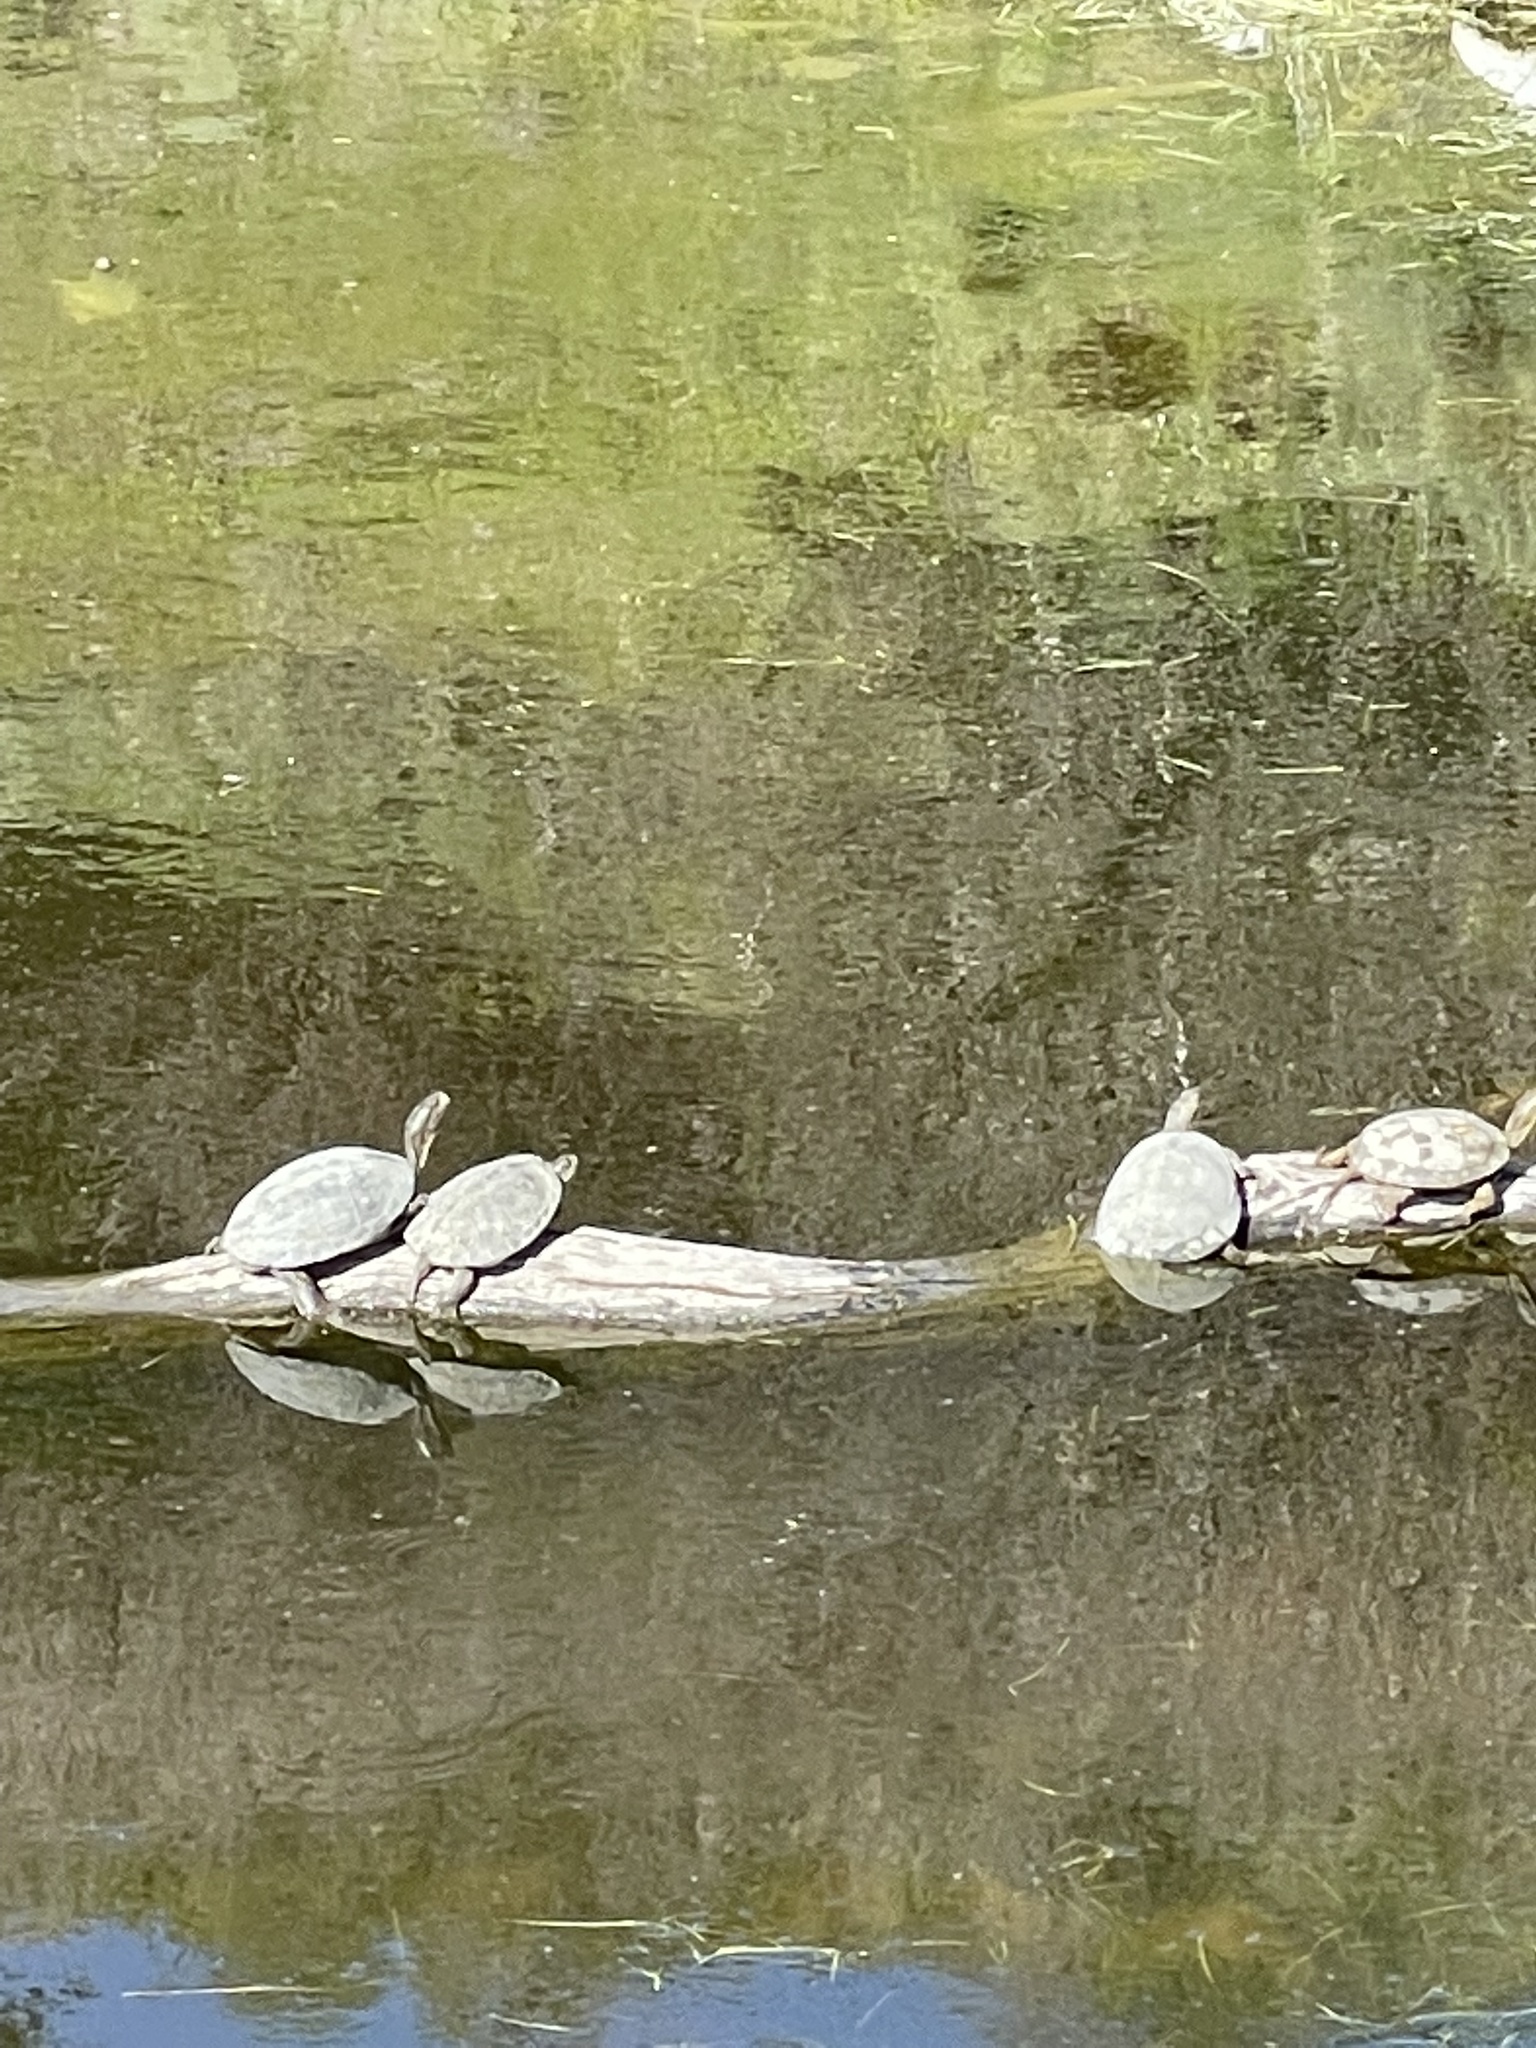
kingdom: Animalia
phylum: Chordata
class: Testudines
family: Emydidae
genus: Actinemys
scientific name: Actinemys marmorata
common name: Western pond turtle
